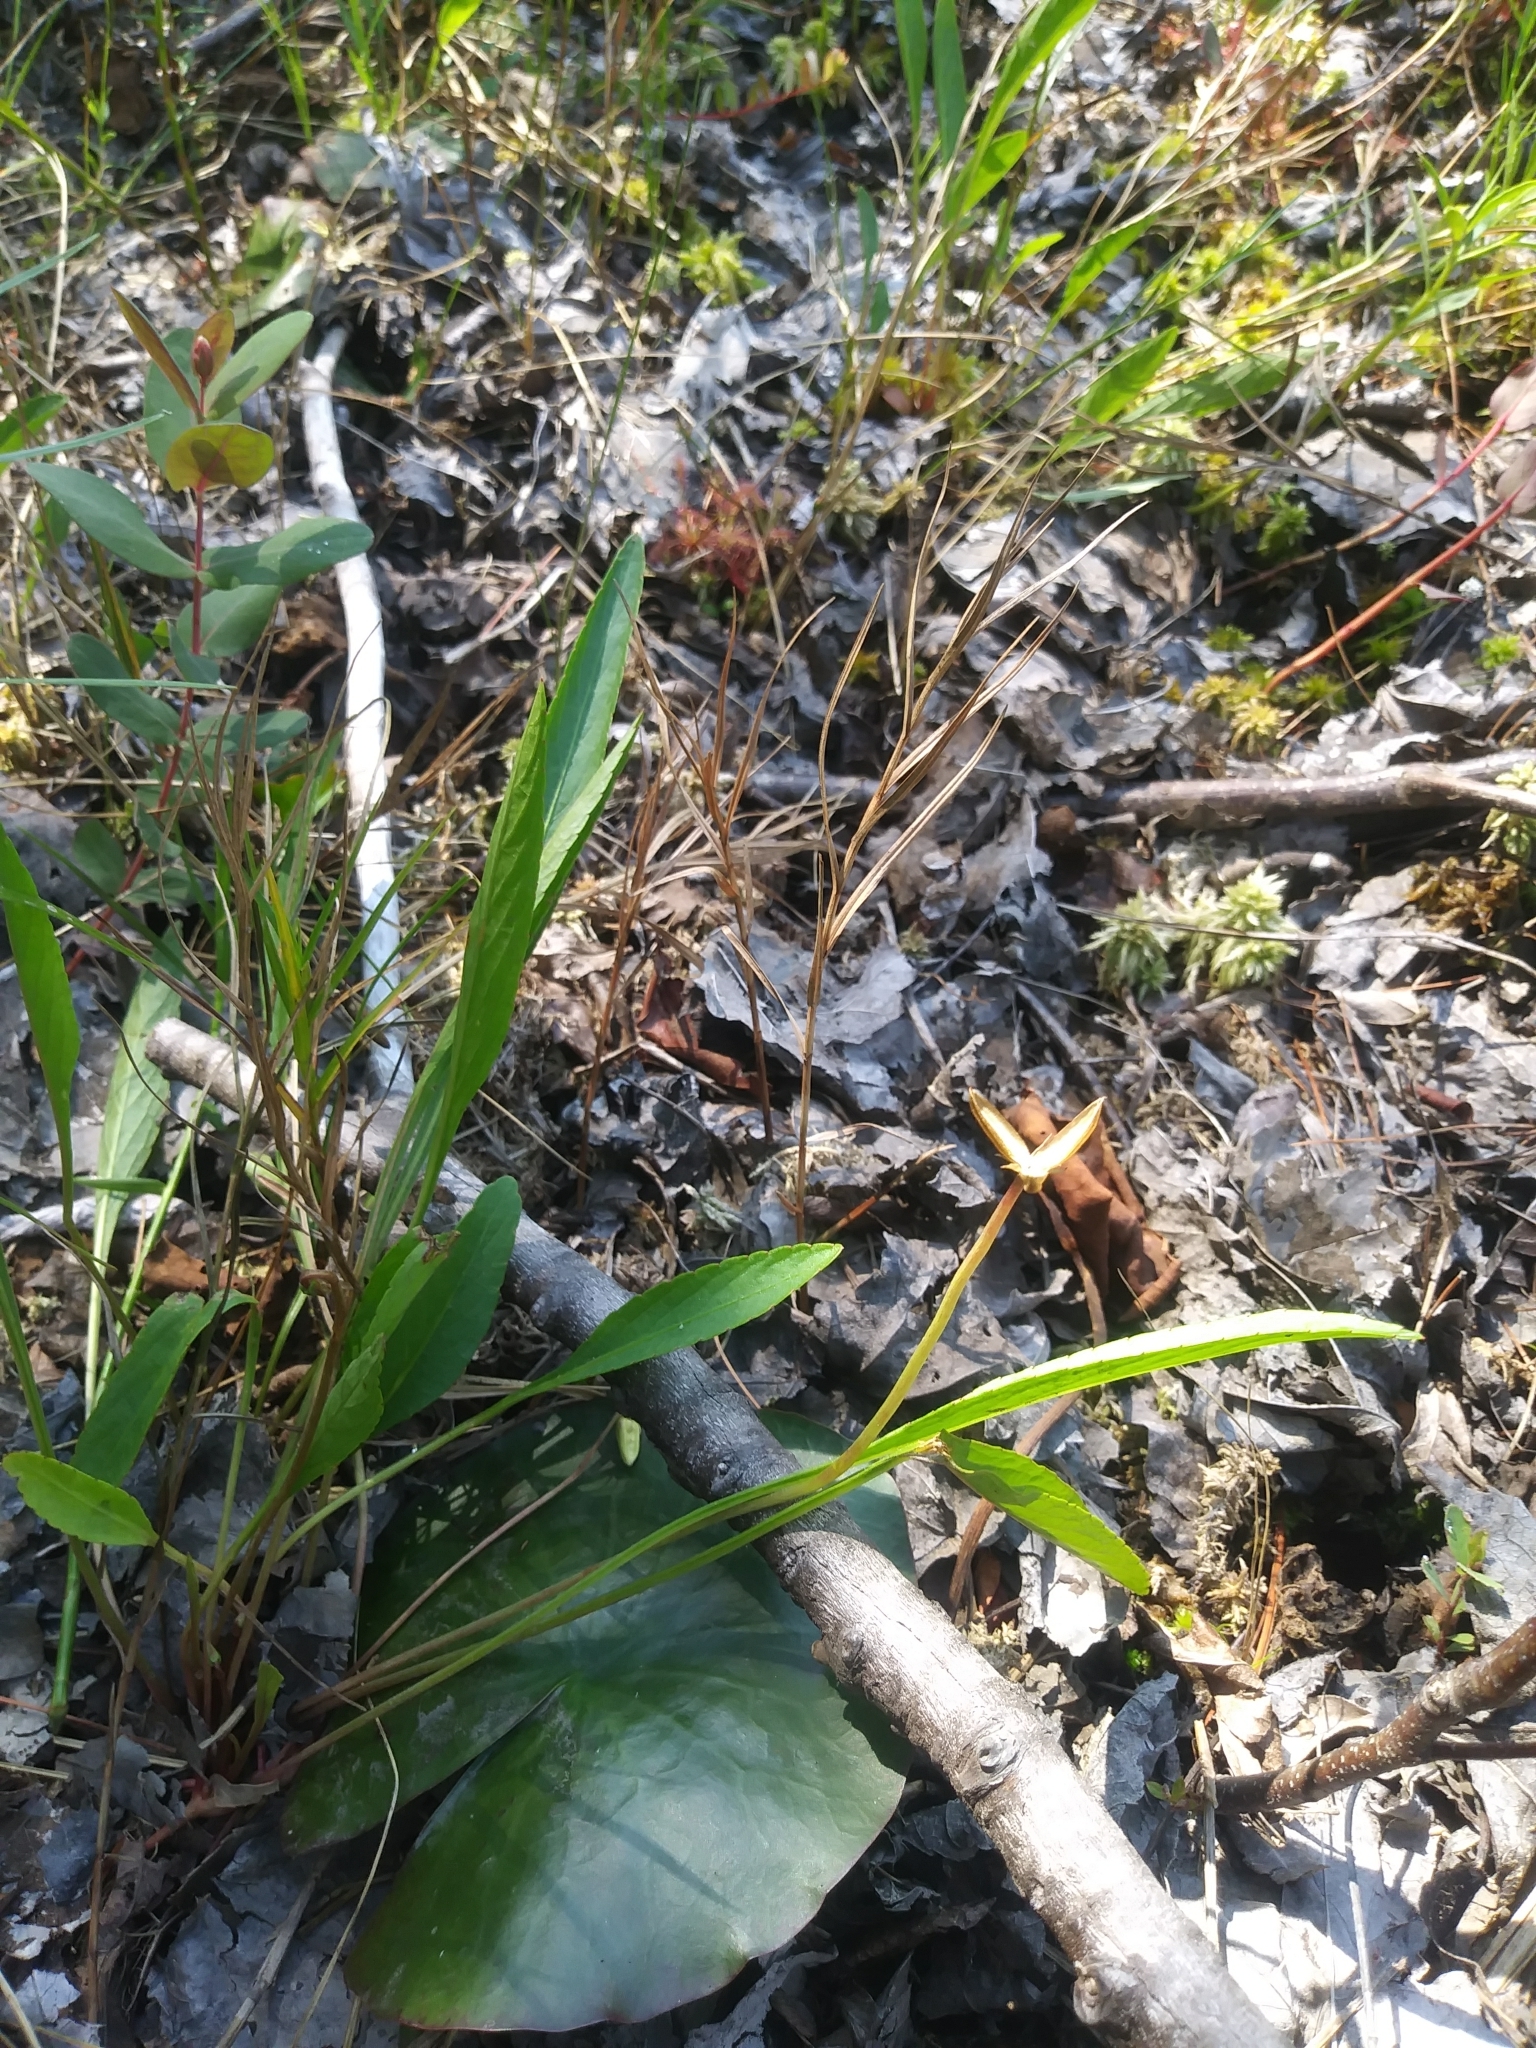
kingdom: Plantae
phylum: Tracheophyta
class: Magnoliopsida
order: Malpighiales
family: Violaceae
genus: Viola
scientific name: Viola lanceolata
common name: Bog white violet
